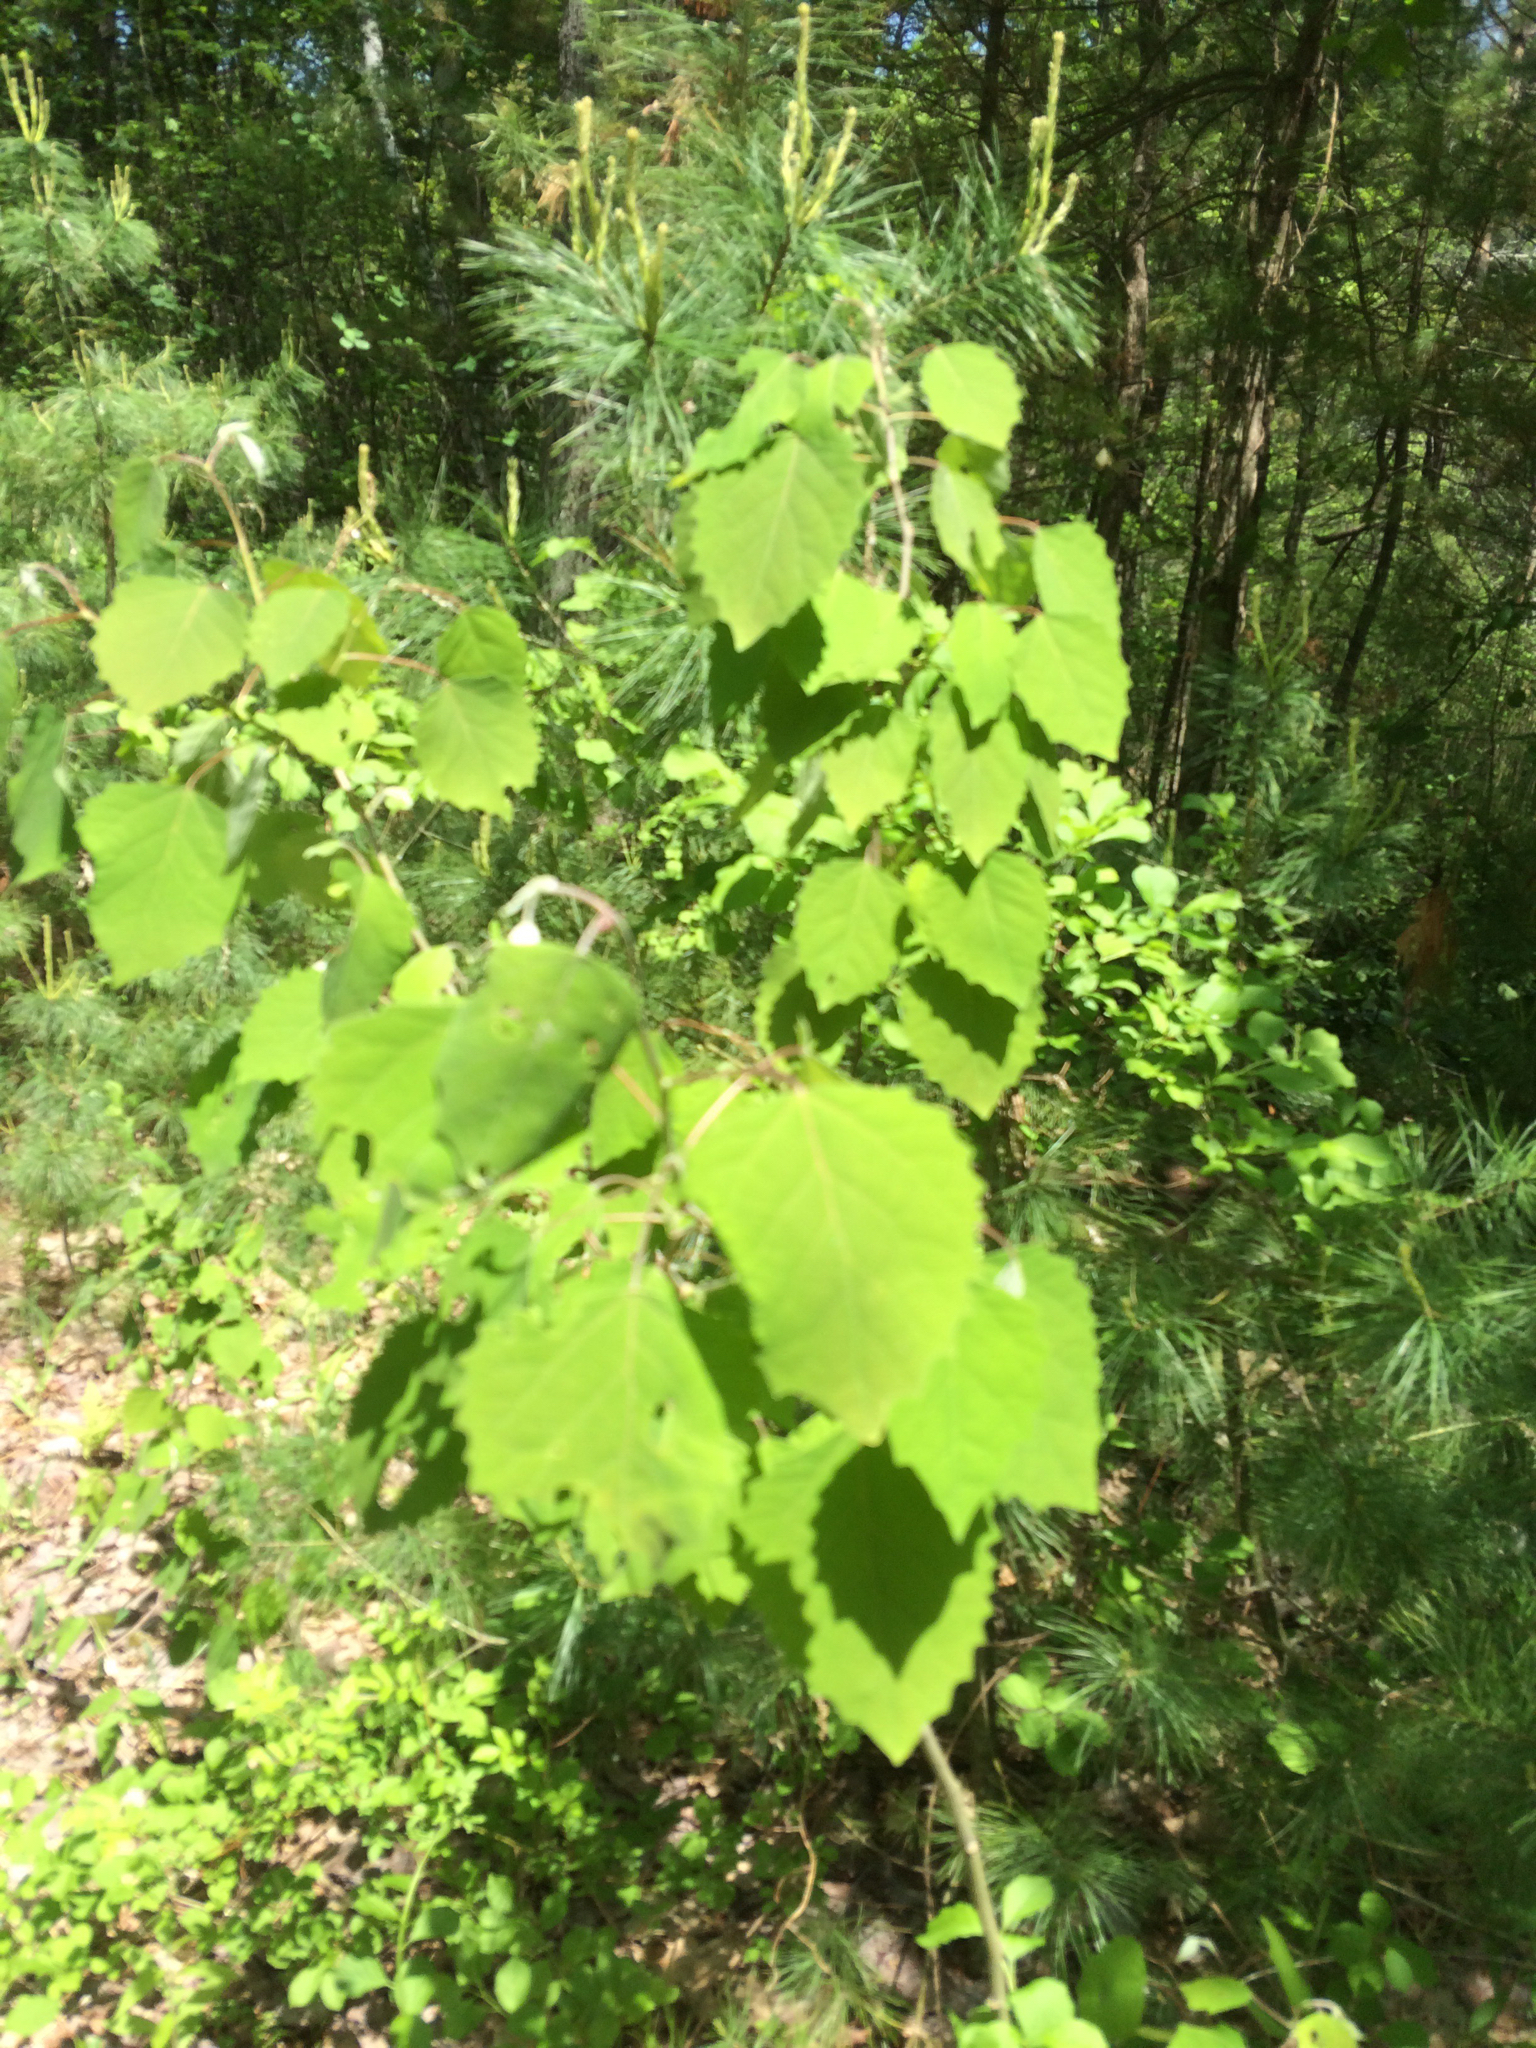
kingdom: Plantae
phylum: Tracheophyta
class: Magnoliopsida
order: Malpighiales
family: Salicaceae
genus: Populus
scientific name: Populus grandidentata
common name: Bigtooth aspen
